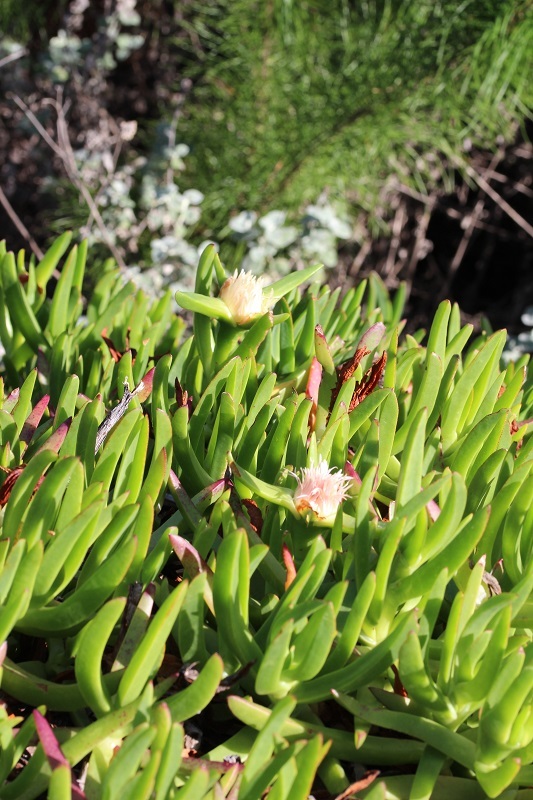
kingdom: Plantae
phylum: Tracheophyta
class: Magnoliopsida
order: Caryophyllales
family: Aizoaceae
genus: Carpobrotus
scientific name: Carpobrotus edulis
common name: Hottentot-fig
